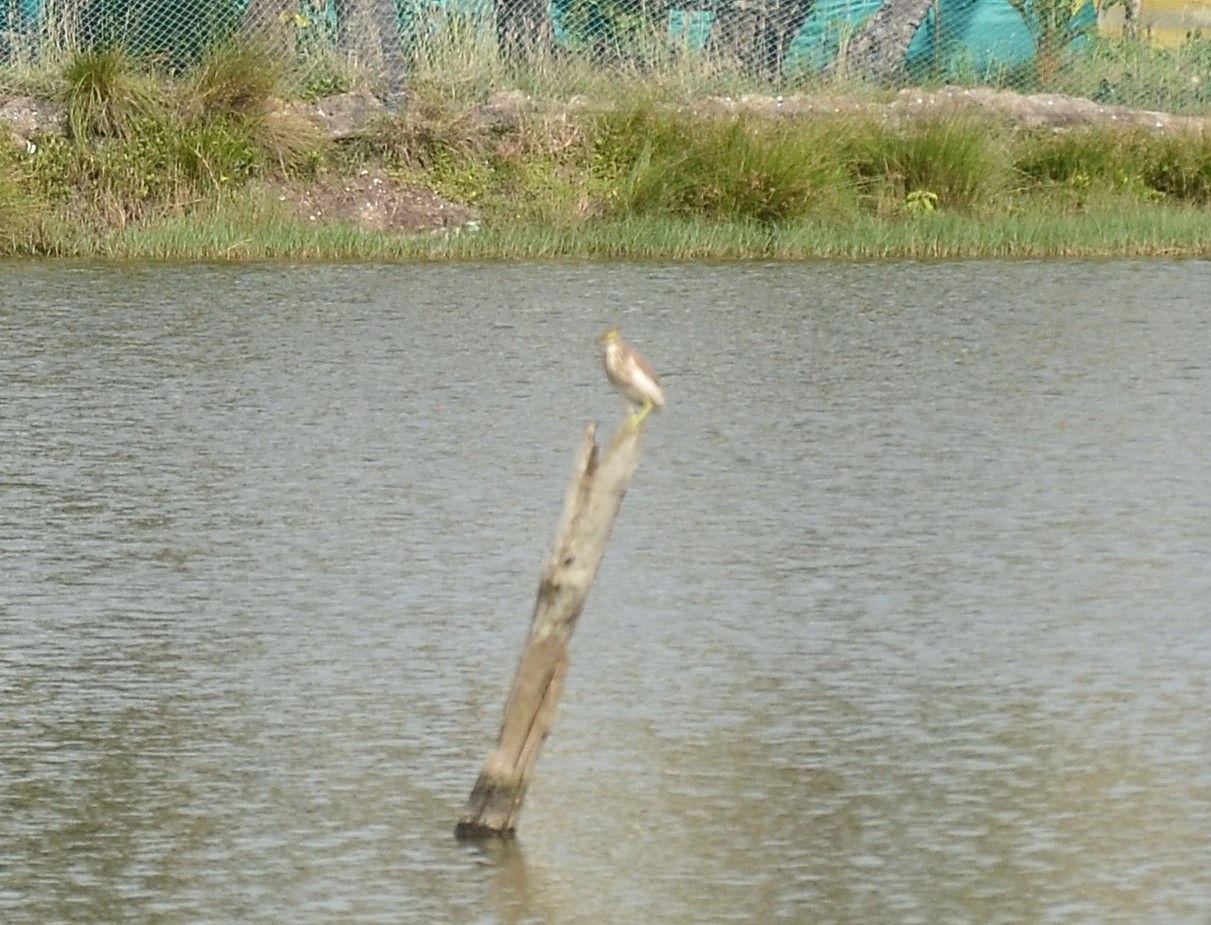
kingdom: Animalia
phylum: Chordata
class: Aves
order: Pelecaniformes
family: Ardeidae
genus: Ardeola
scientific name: Ardeola grayii
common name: Indian pond heron
